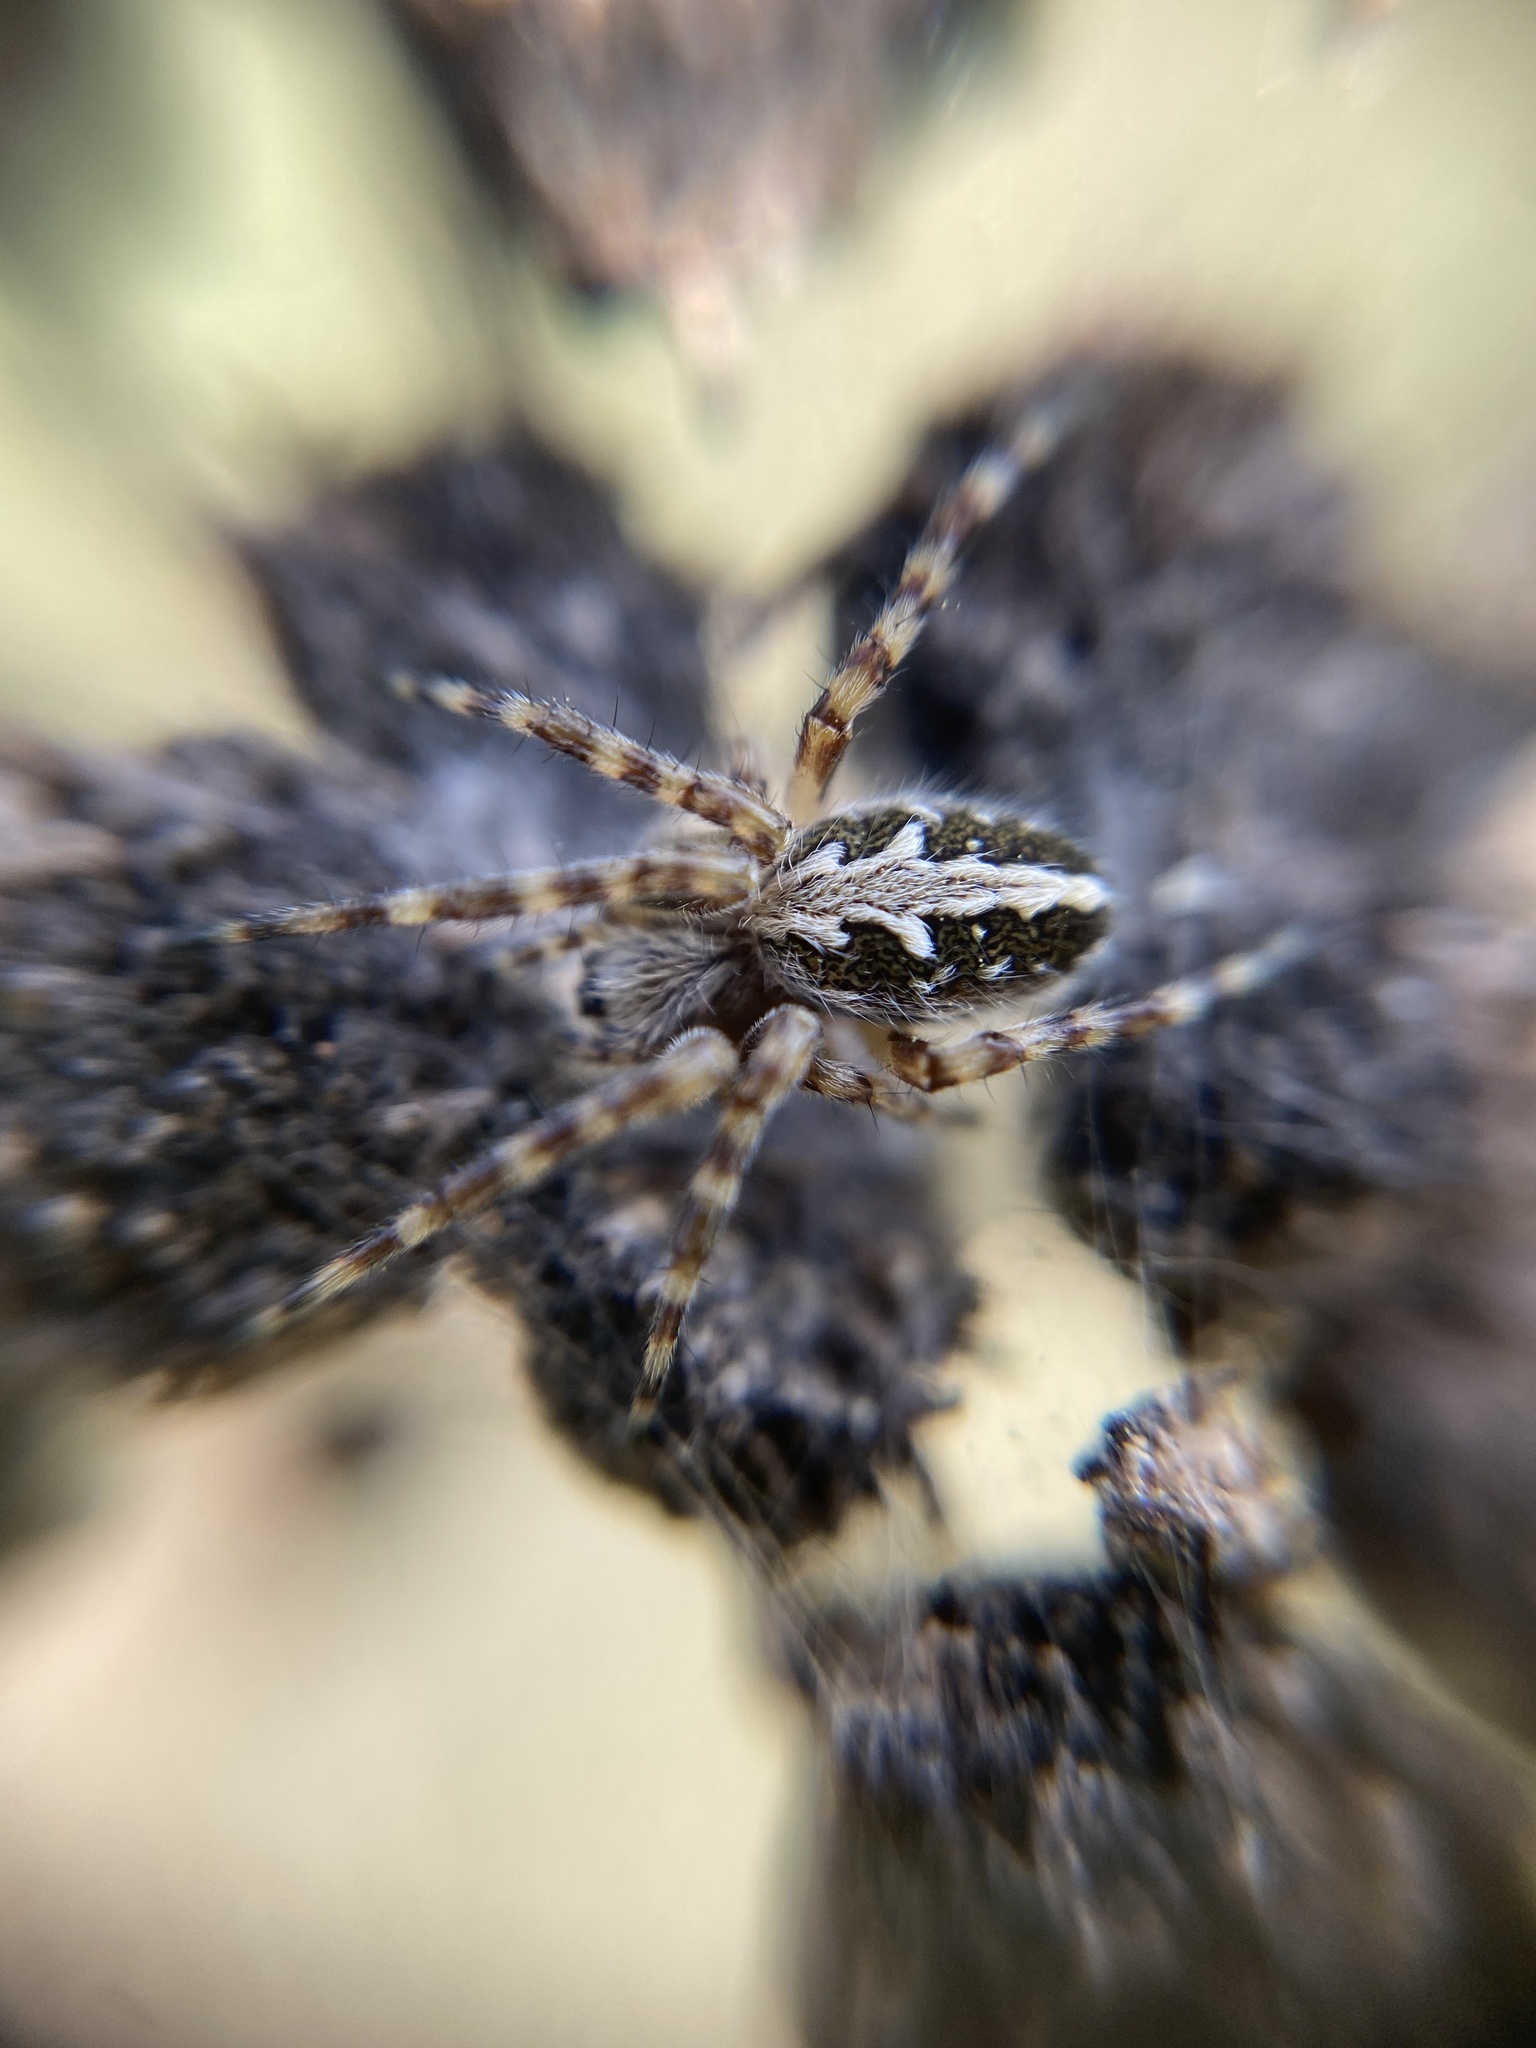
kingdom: Animalia
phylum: Arthropoda
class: Arachnida
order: Araneae
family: Araneidae
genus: Aculepeira
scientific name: Aculepeira ceropegia
